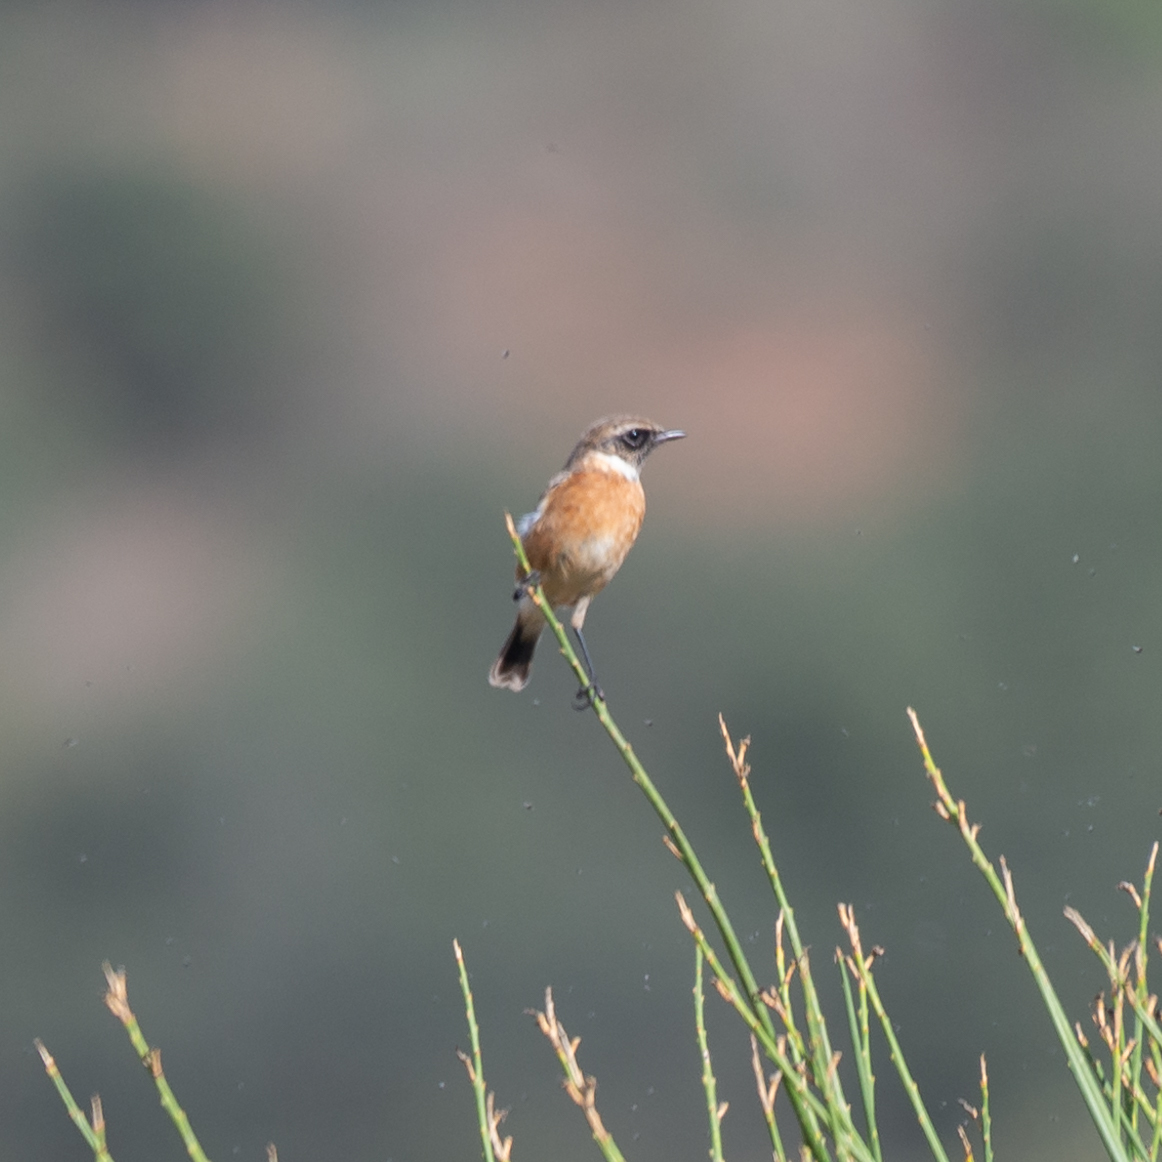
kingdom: Animalia
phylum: Chordata
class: Aves
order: Passeriformes
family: Muscicapidae
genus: Saxicola
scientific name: Saxicola rubicola
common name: European stonechat
